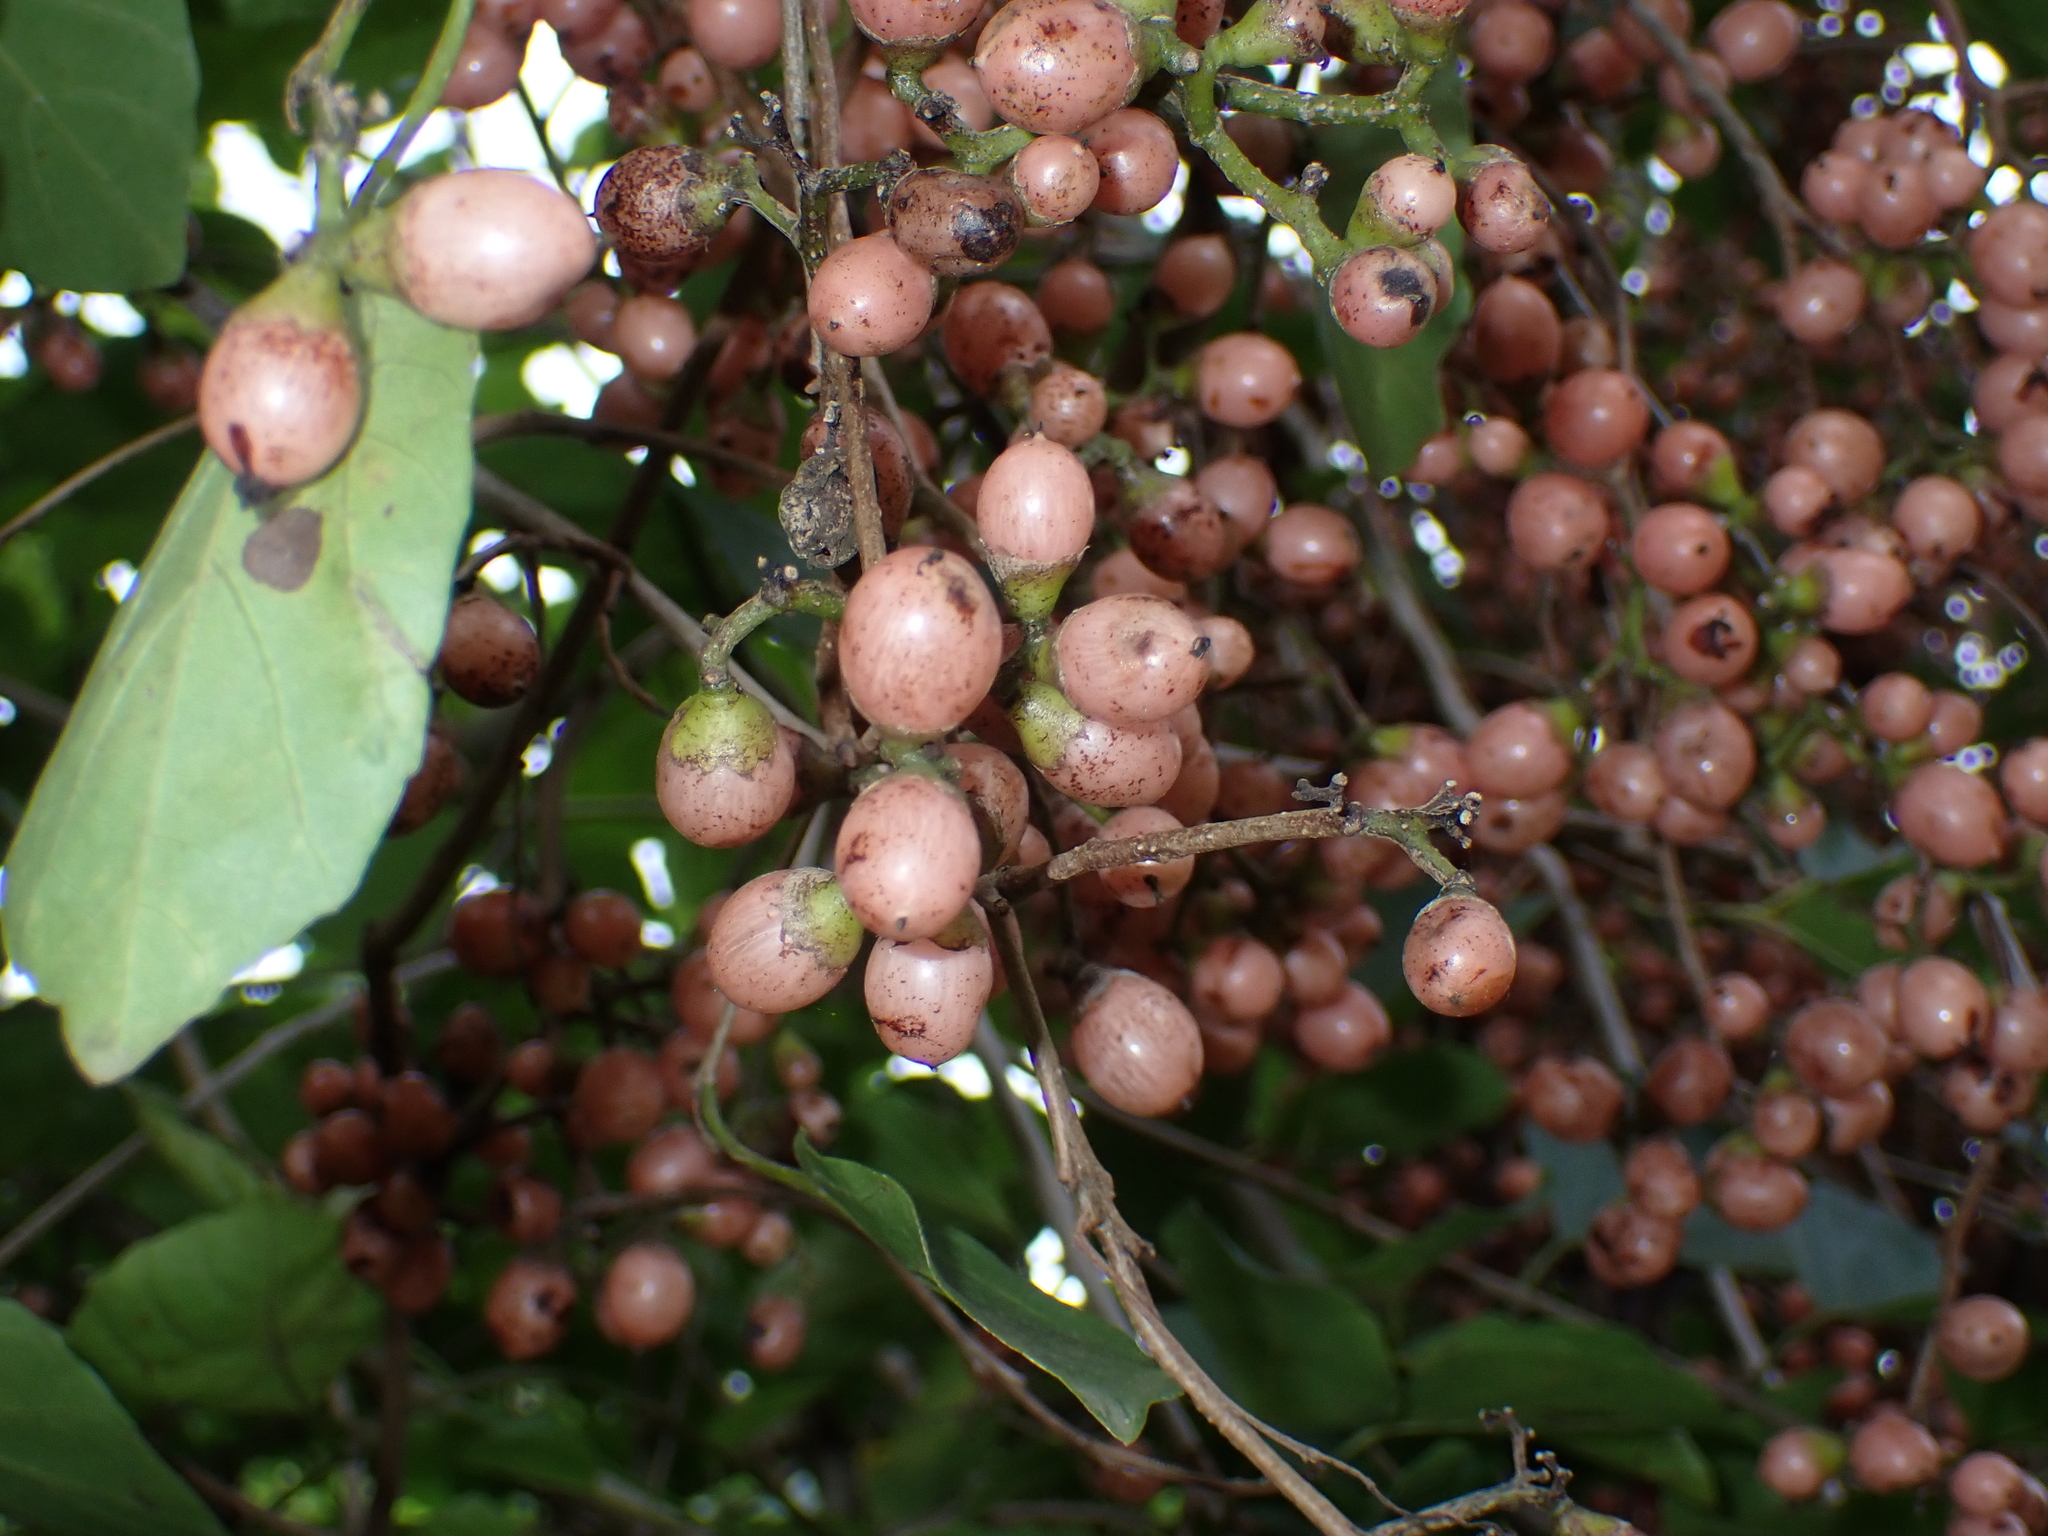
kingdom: Plantae
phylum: Tracheophyta
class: Magnoliopsida
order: Boraginales
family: Cordiaceae
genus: Cordia
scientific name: Cordia dichotoma
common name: Fragrant manjack
